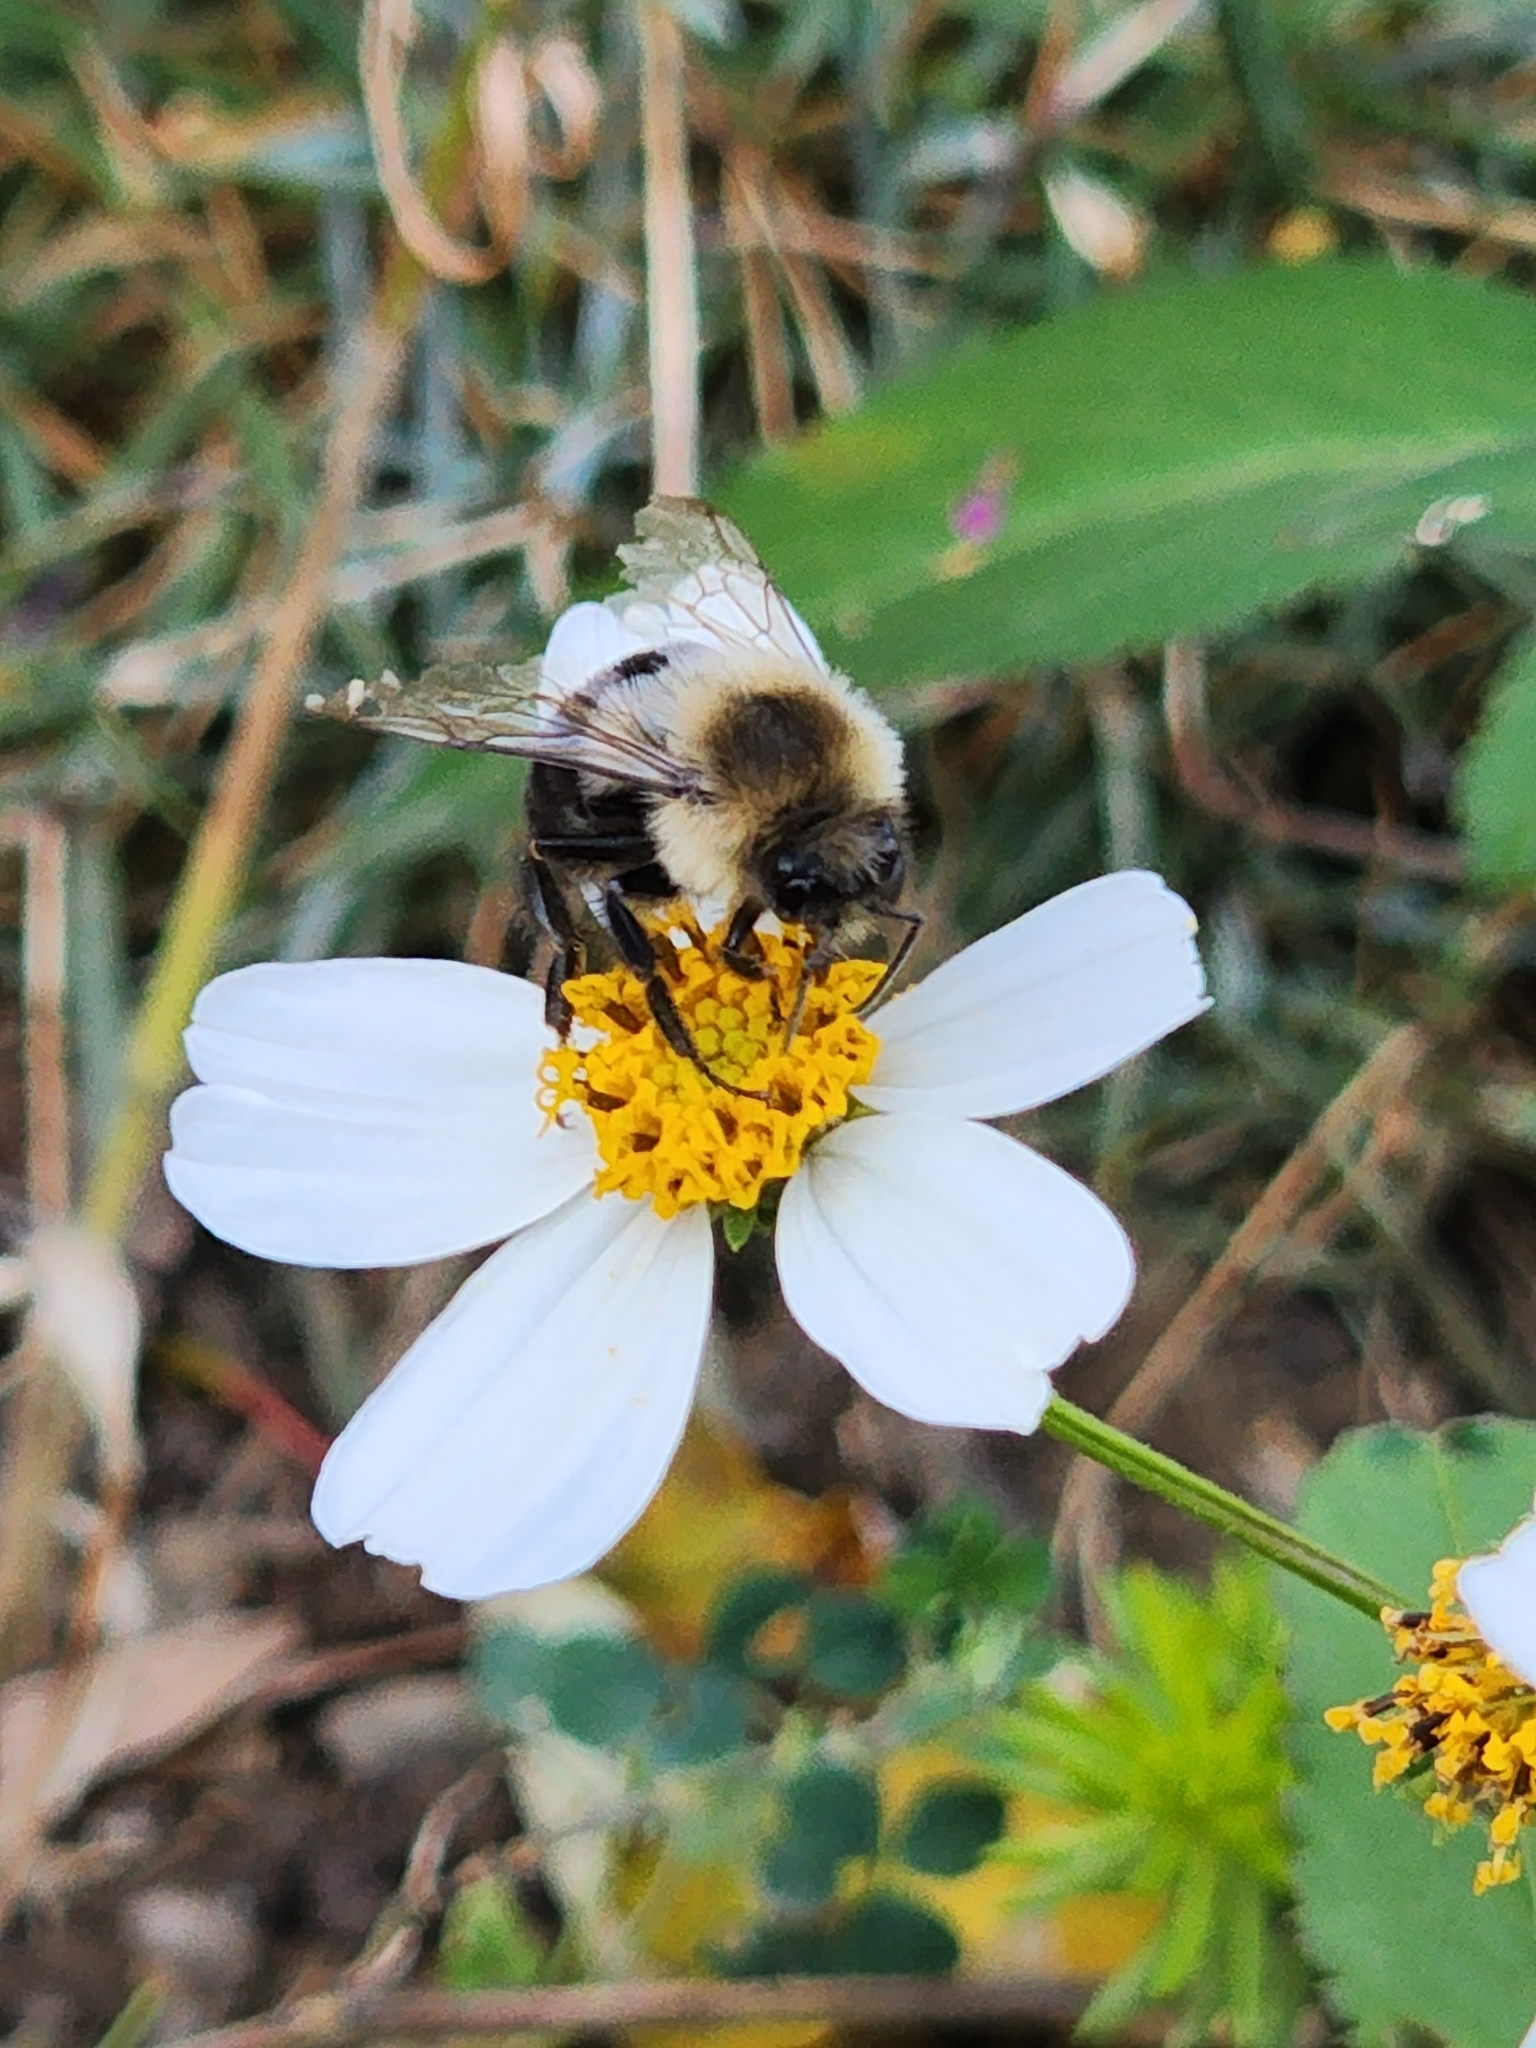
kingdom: Animalia
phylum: Arthropoda
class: Insecta
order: Hymenoptera
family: Apidae
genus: Bombus
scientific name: Bombus impatiens
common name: Common eastern bumble bee
